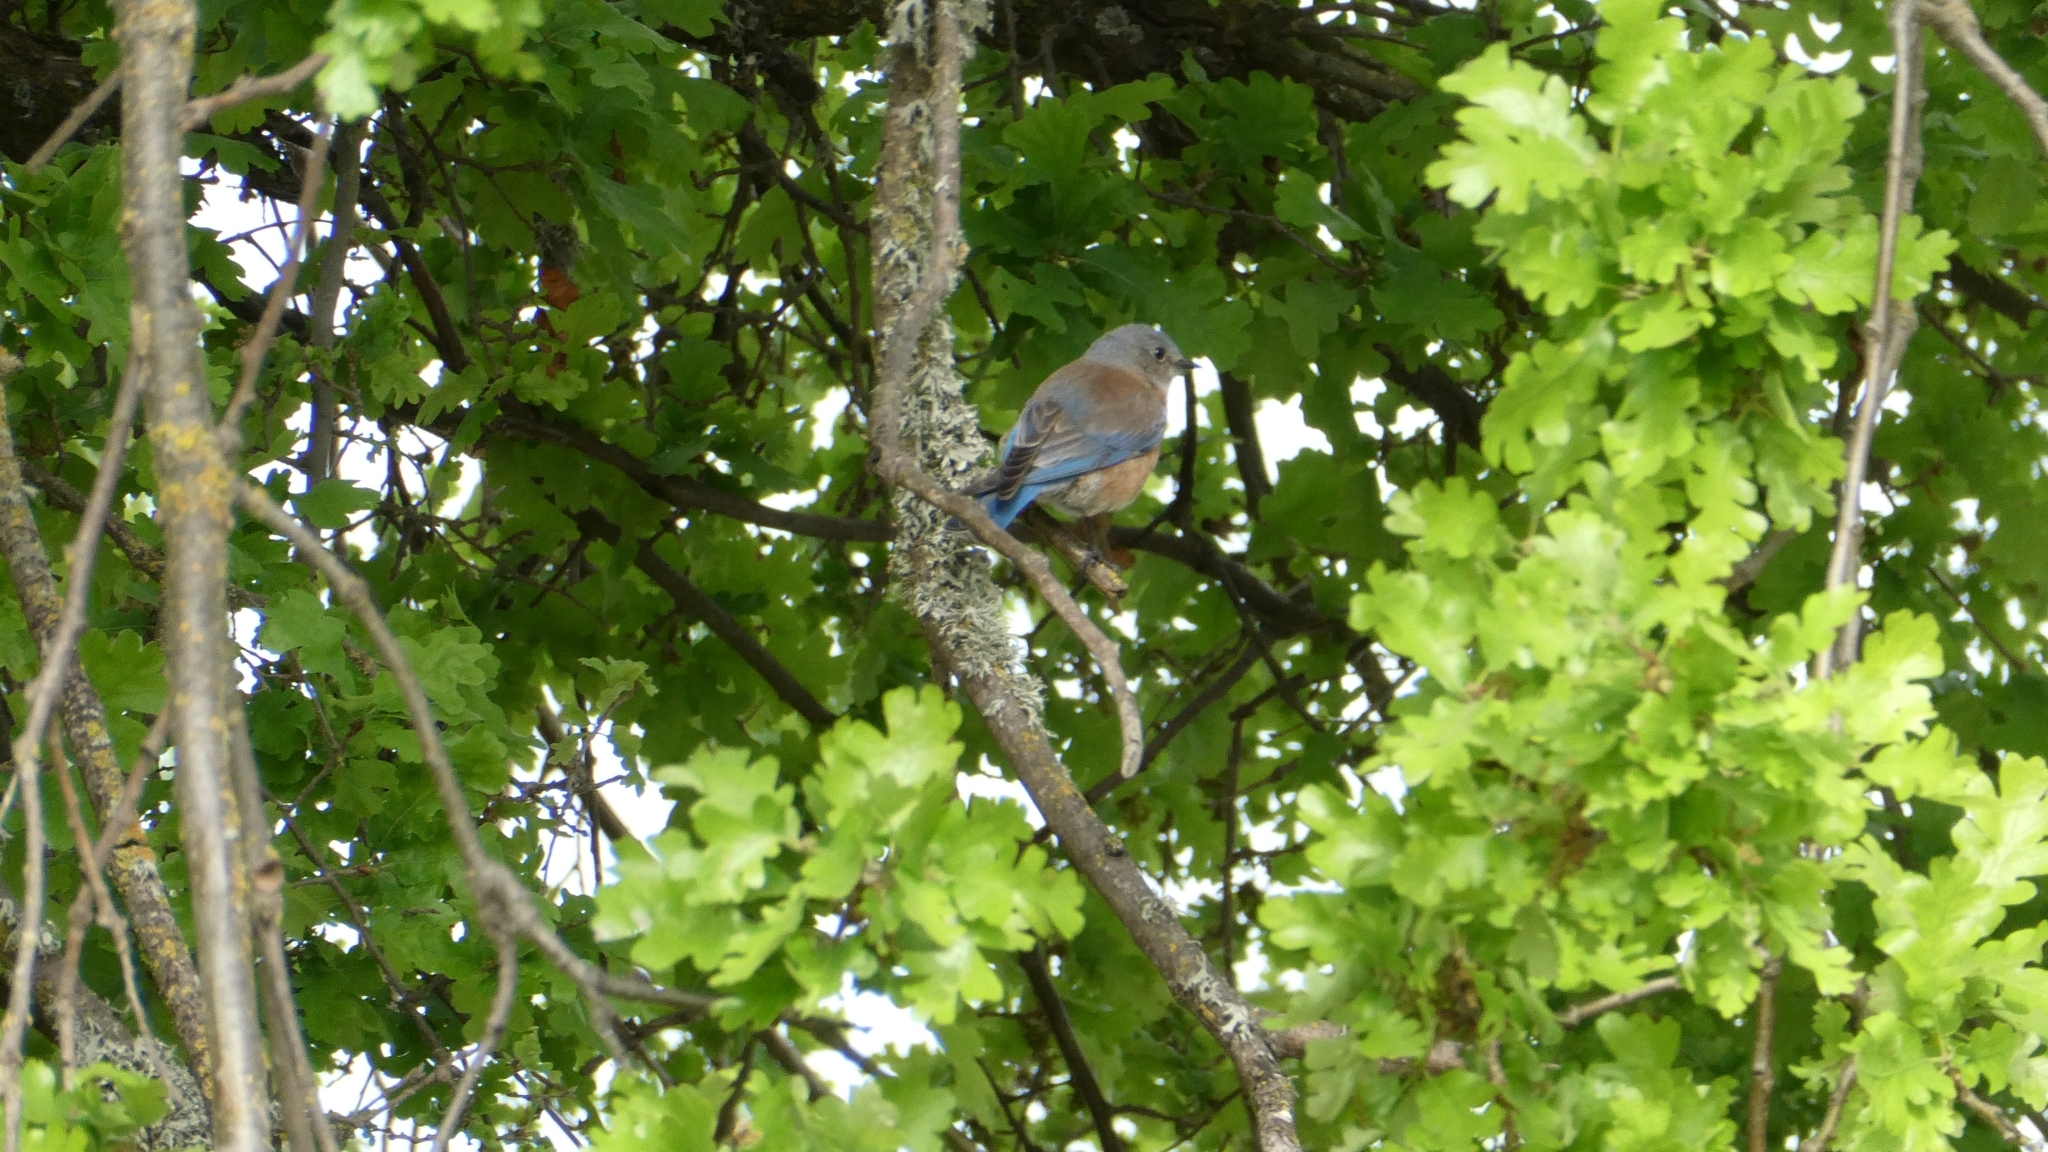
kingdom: Animalia
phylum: Chordata
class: Aves
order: Passeriformes
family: Turdidae
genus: Sialia
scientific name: Sialia mexicana
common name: Western bluebird
